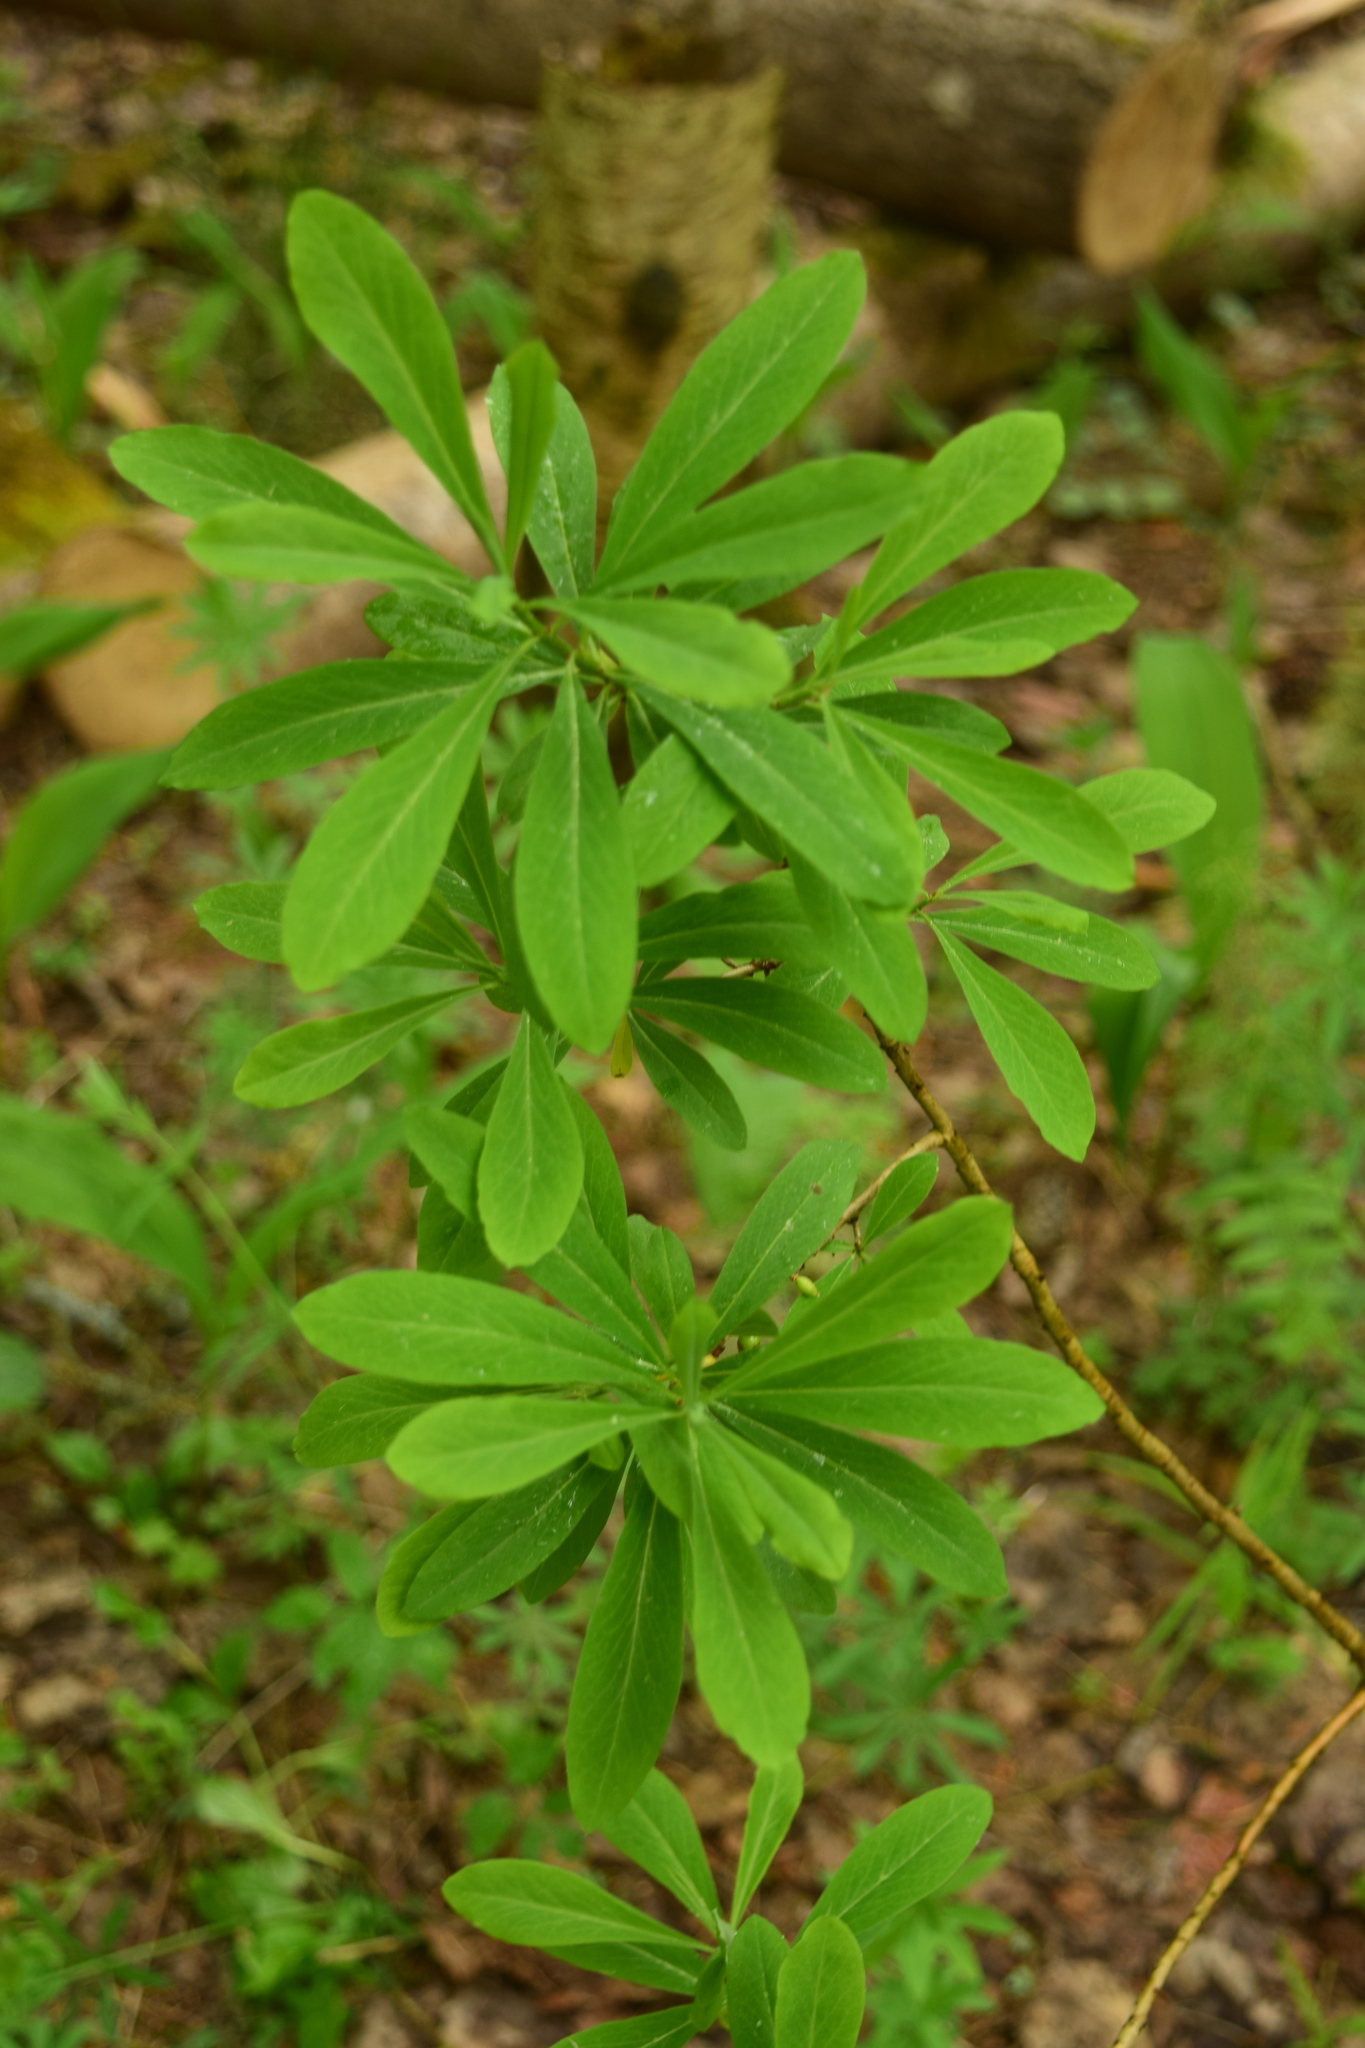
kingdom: Plantae
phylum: Tracheophyta
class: Magnoliopsida
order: Malvales
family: Thymelaeaceae
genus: Daphne
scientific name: Daphne mezereum
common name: Mezereon
